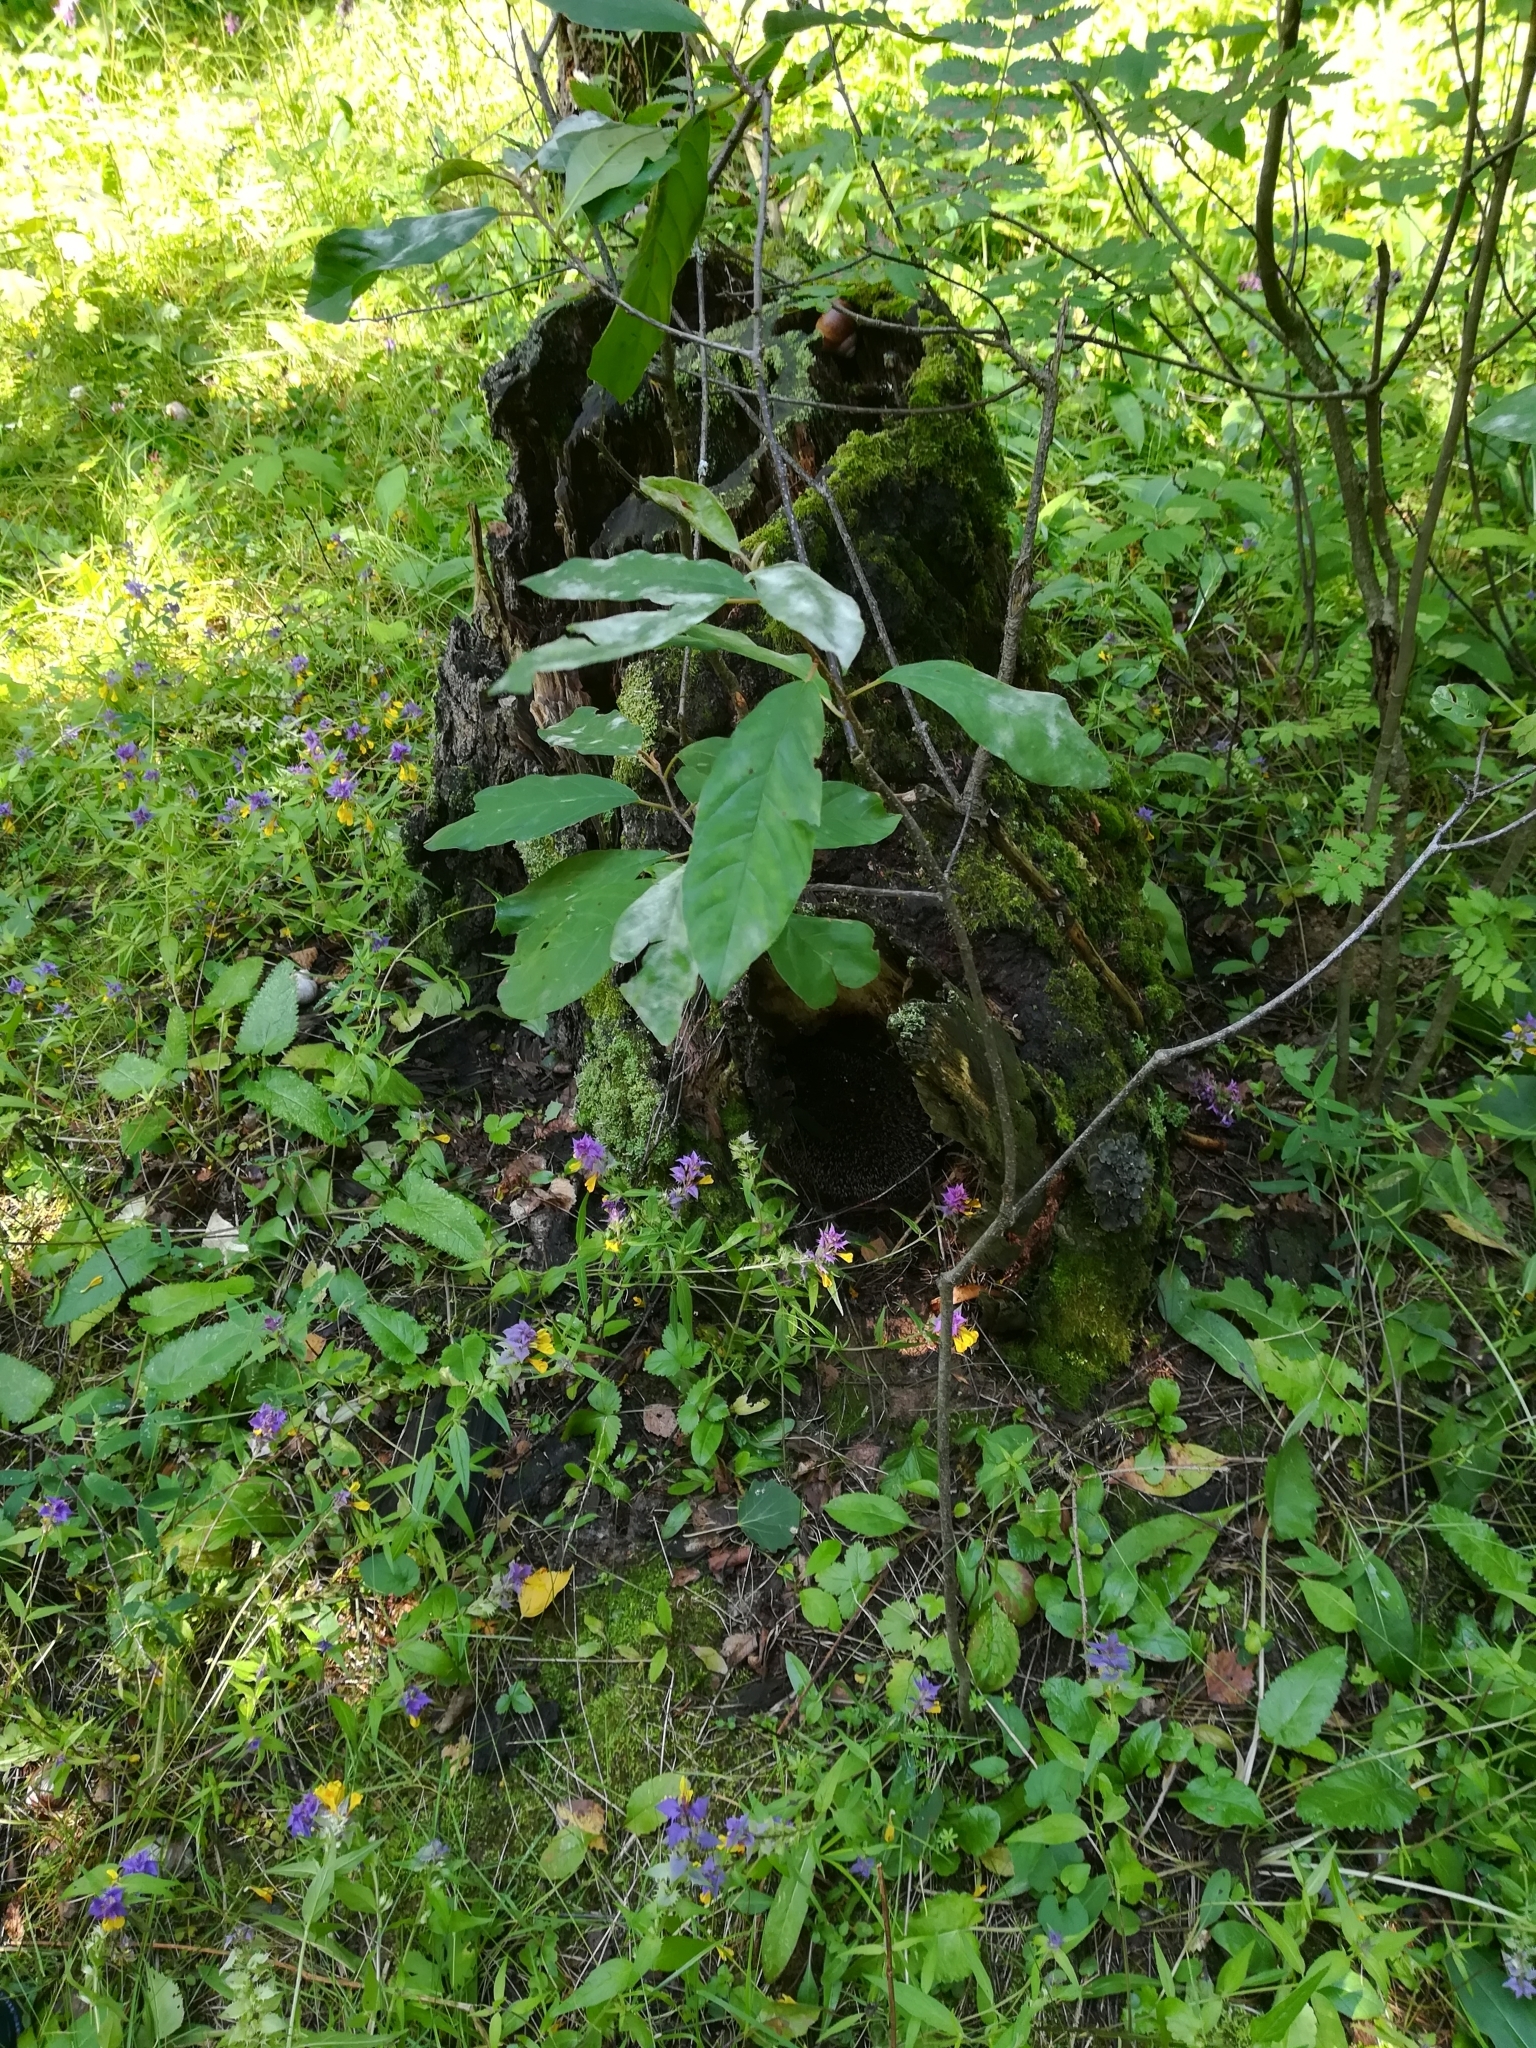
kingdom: Plantae
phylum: Tracheophyta
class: Magnoliopsida
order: Lamiales
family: Orobanchaceae
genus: Melampyrum
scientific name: Melampyrum nemorosum
